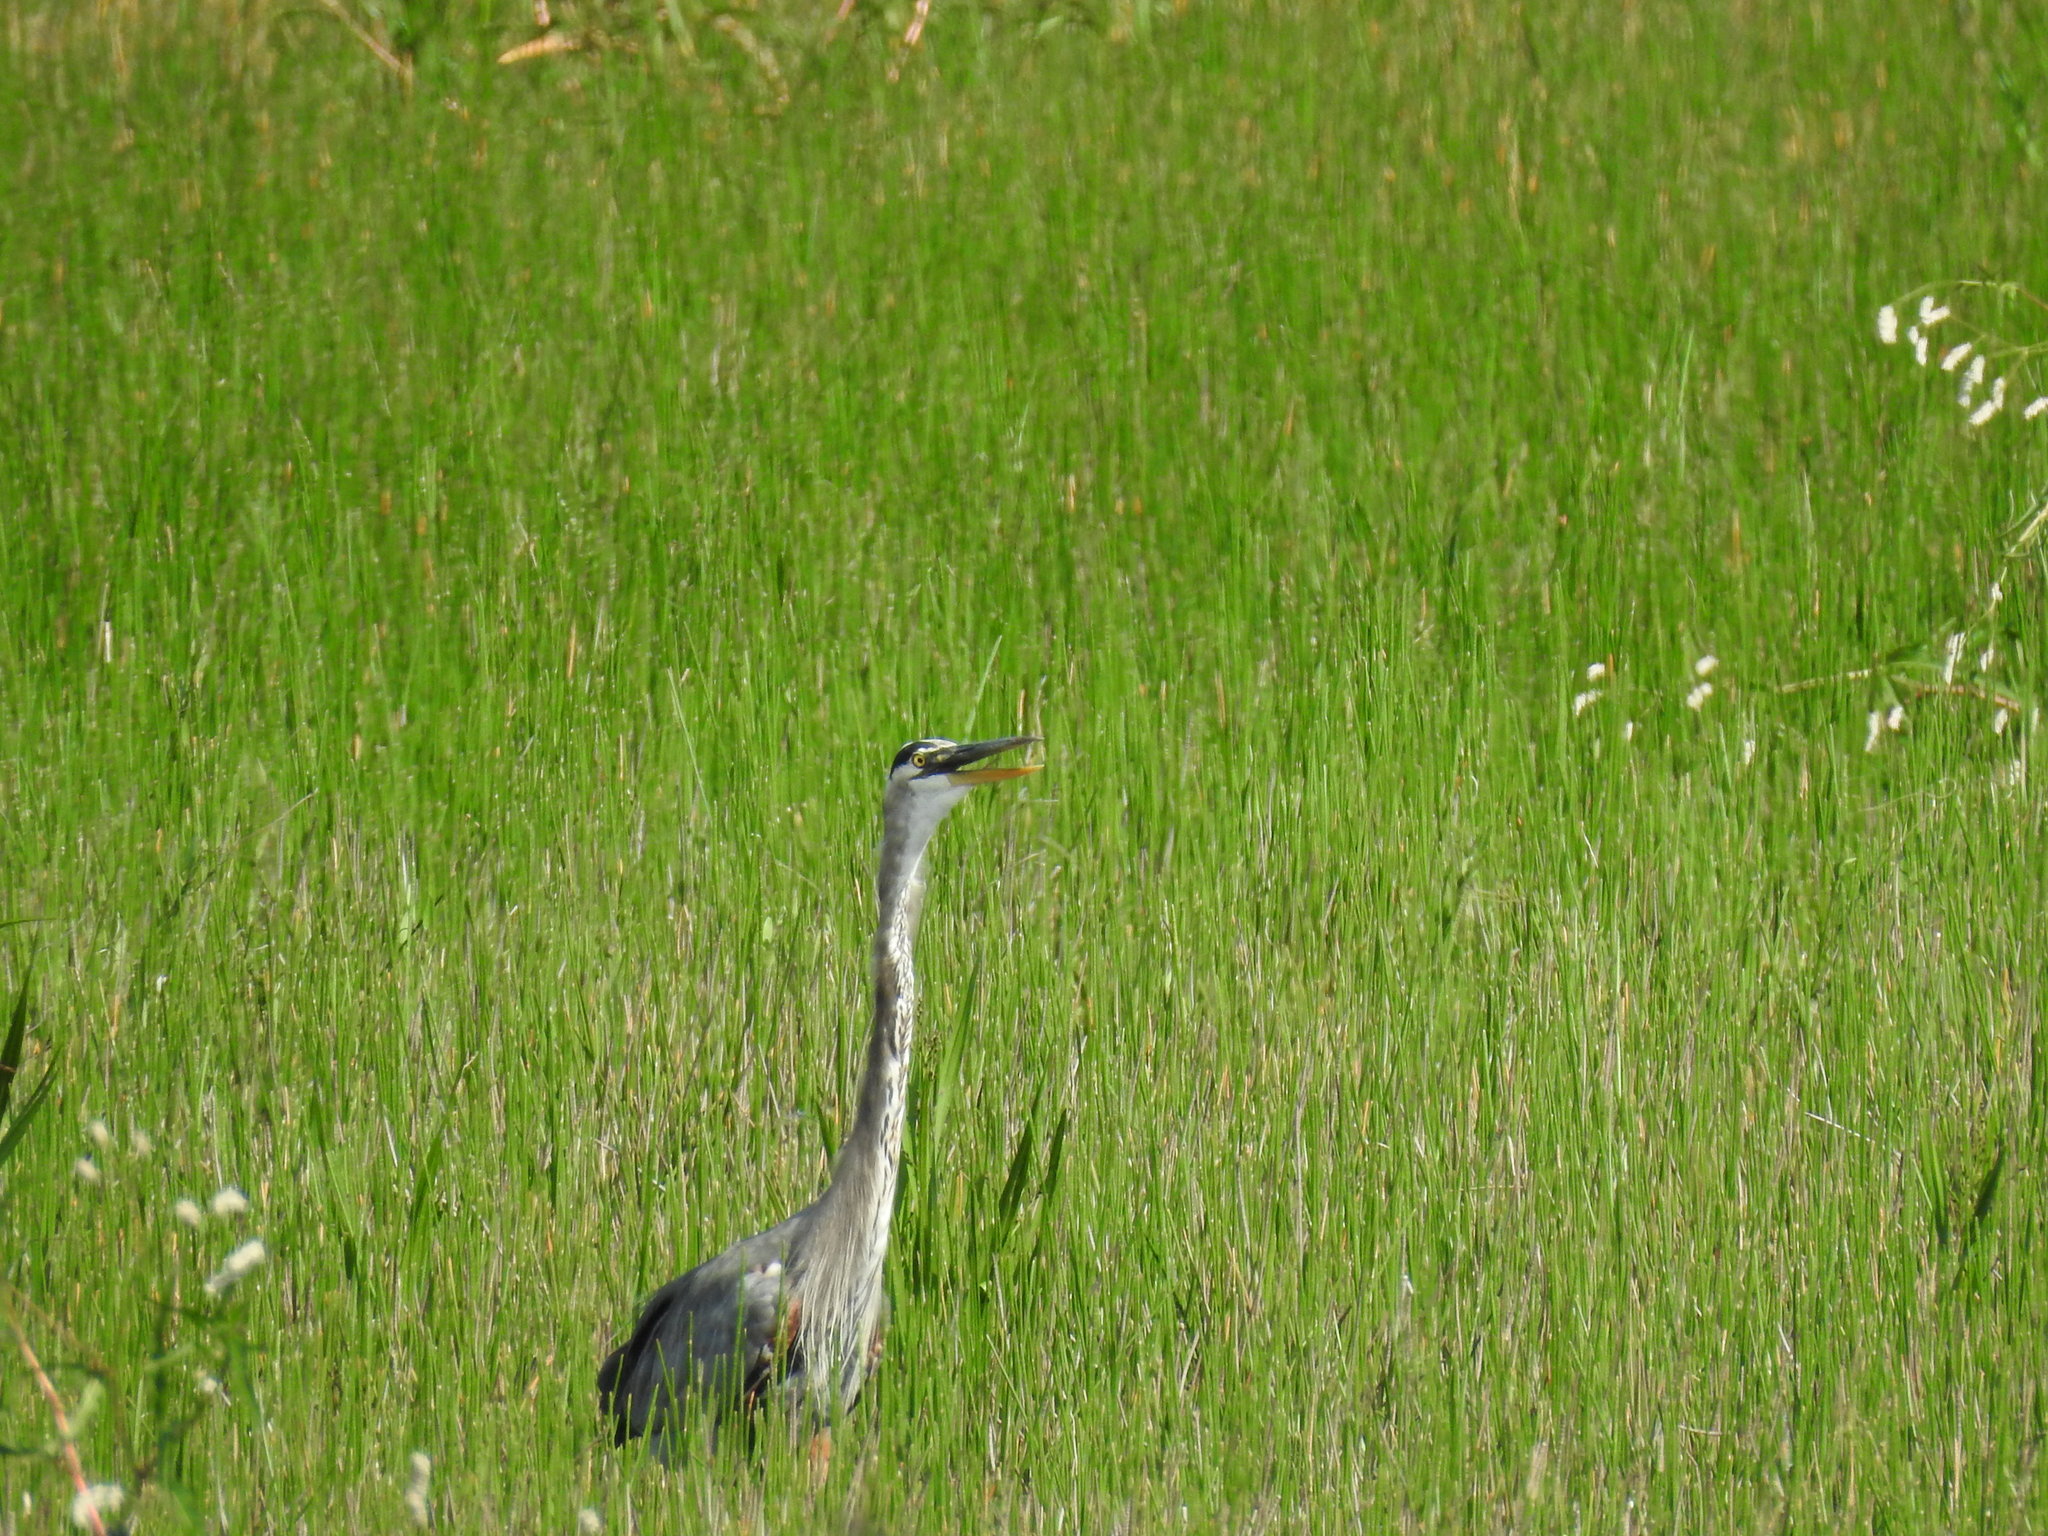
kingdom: Animalia
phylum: Chordata
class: Aves
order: Pelecaniformes
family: Ardeidae
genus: Ardea
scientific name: Ardea herodias
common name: Great blue heron
